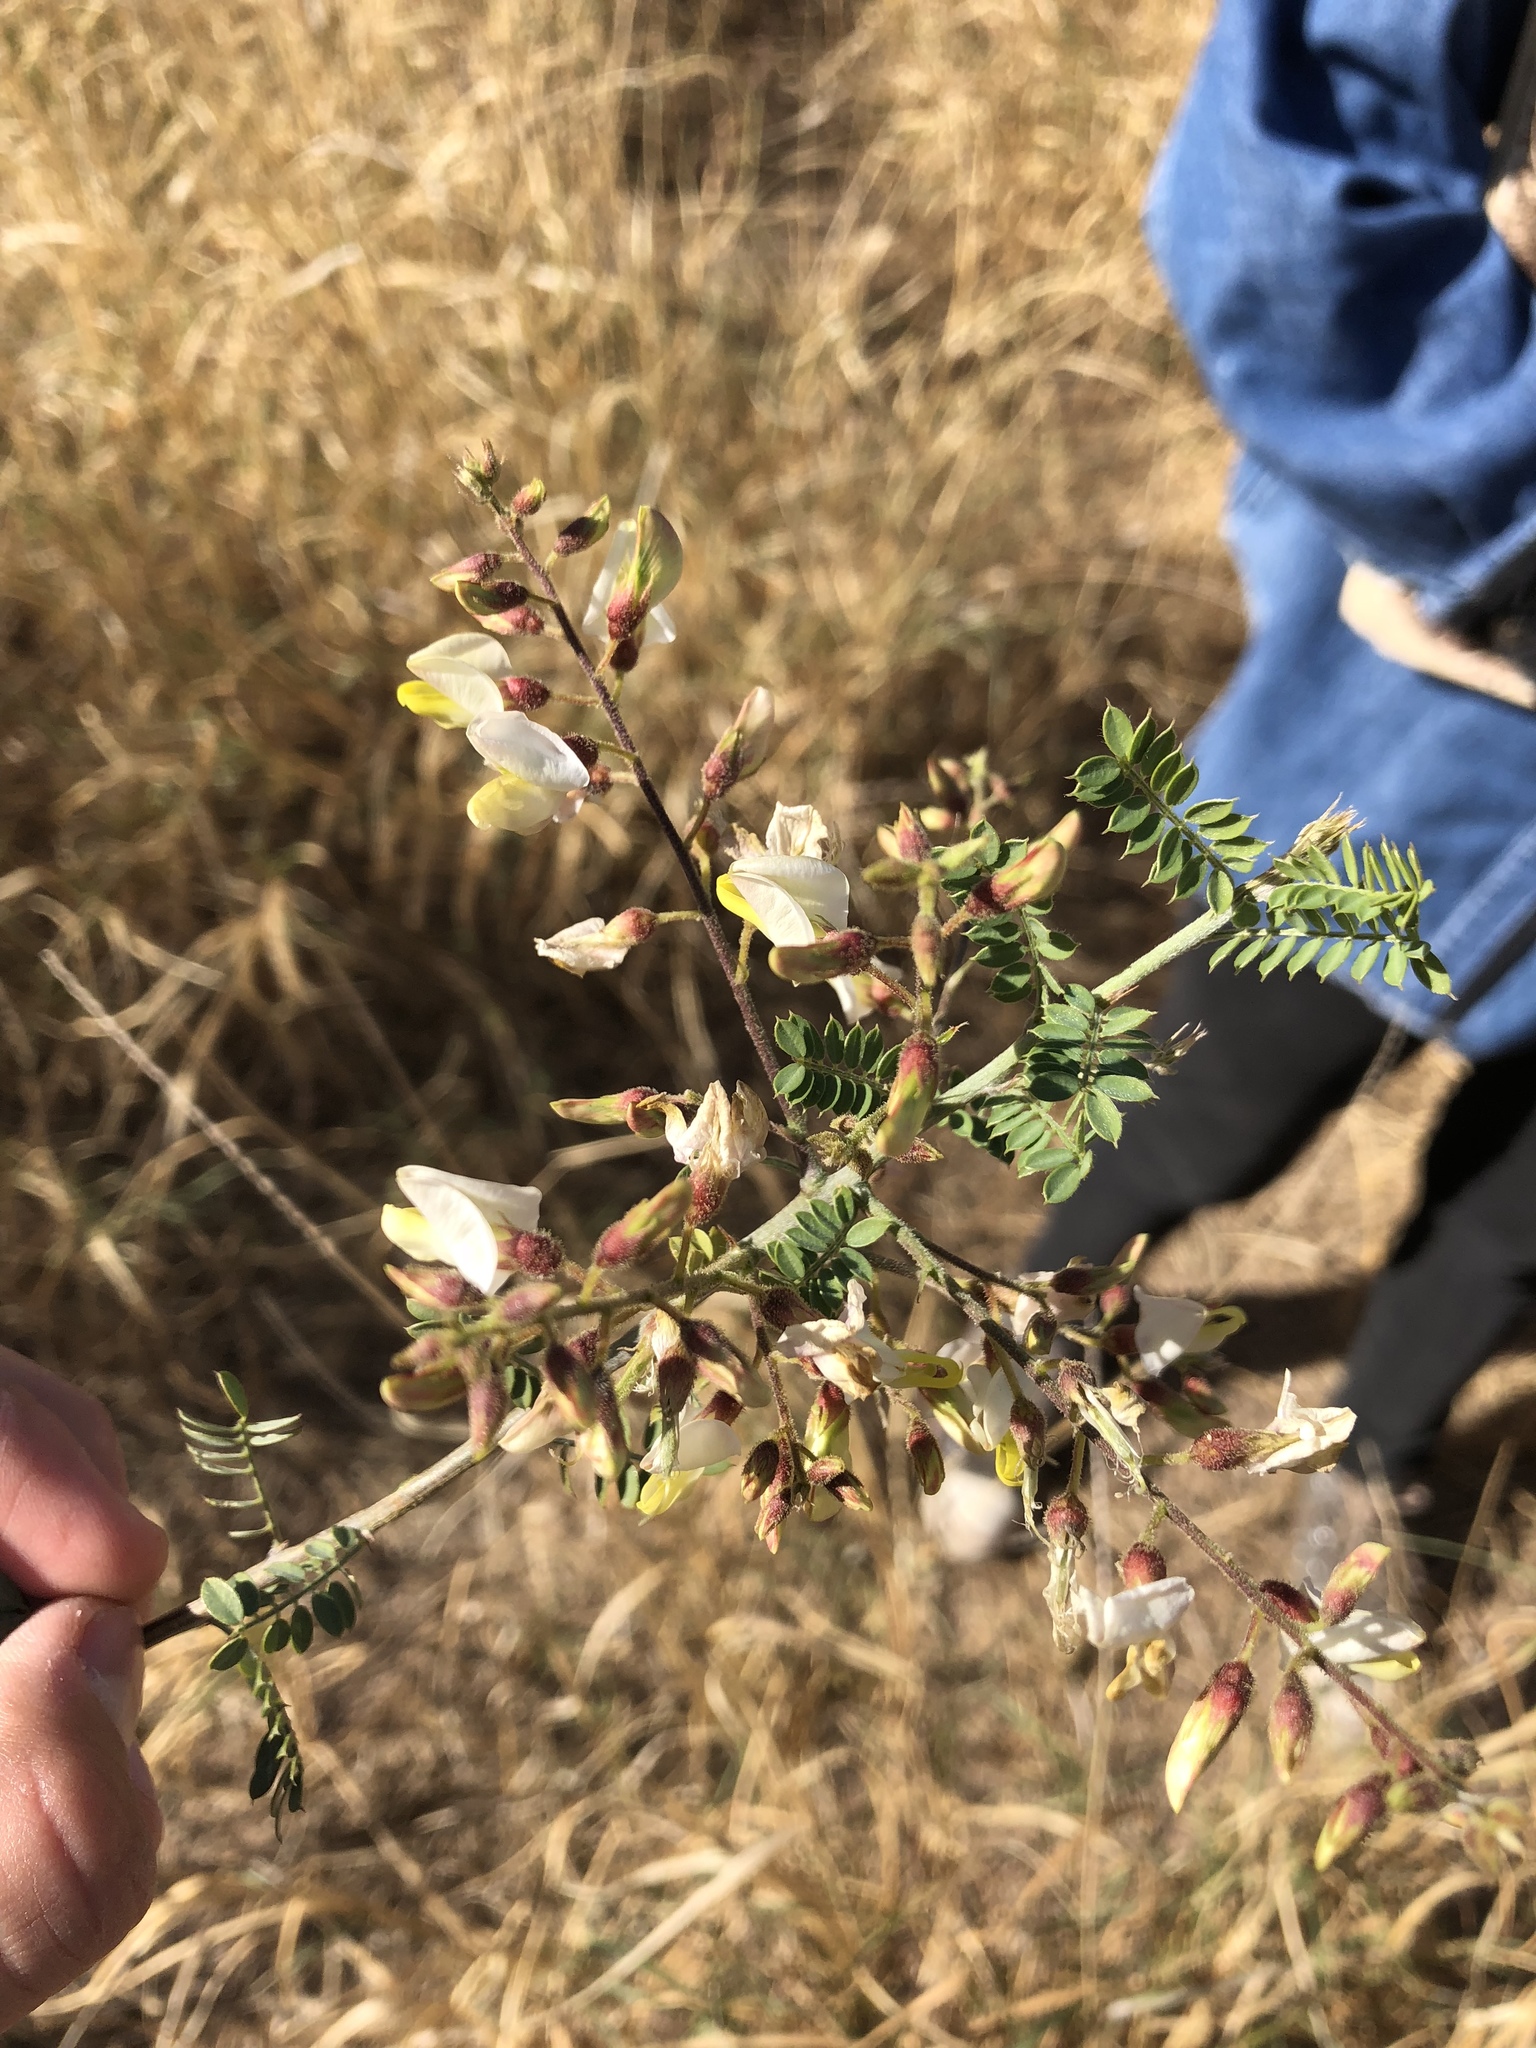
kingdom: Plantae
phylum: Tracheophyta
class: Magnoliopsida
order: Fabales
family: Fabaceae
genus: Coursetia
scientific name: Coursetia glandulosa
